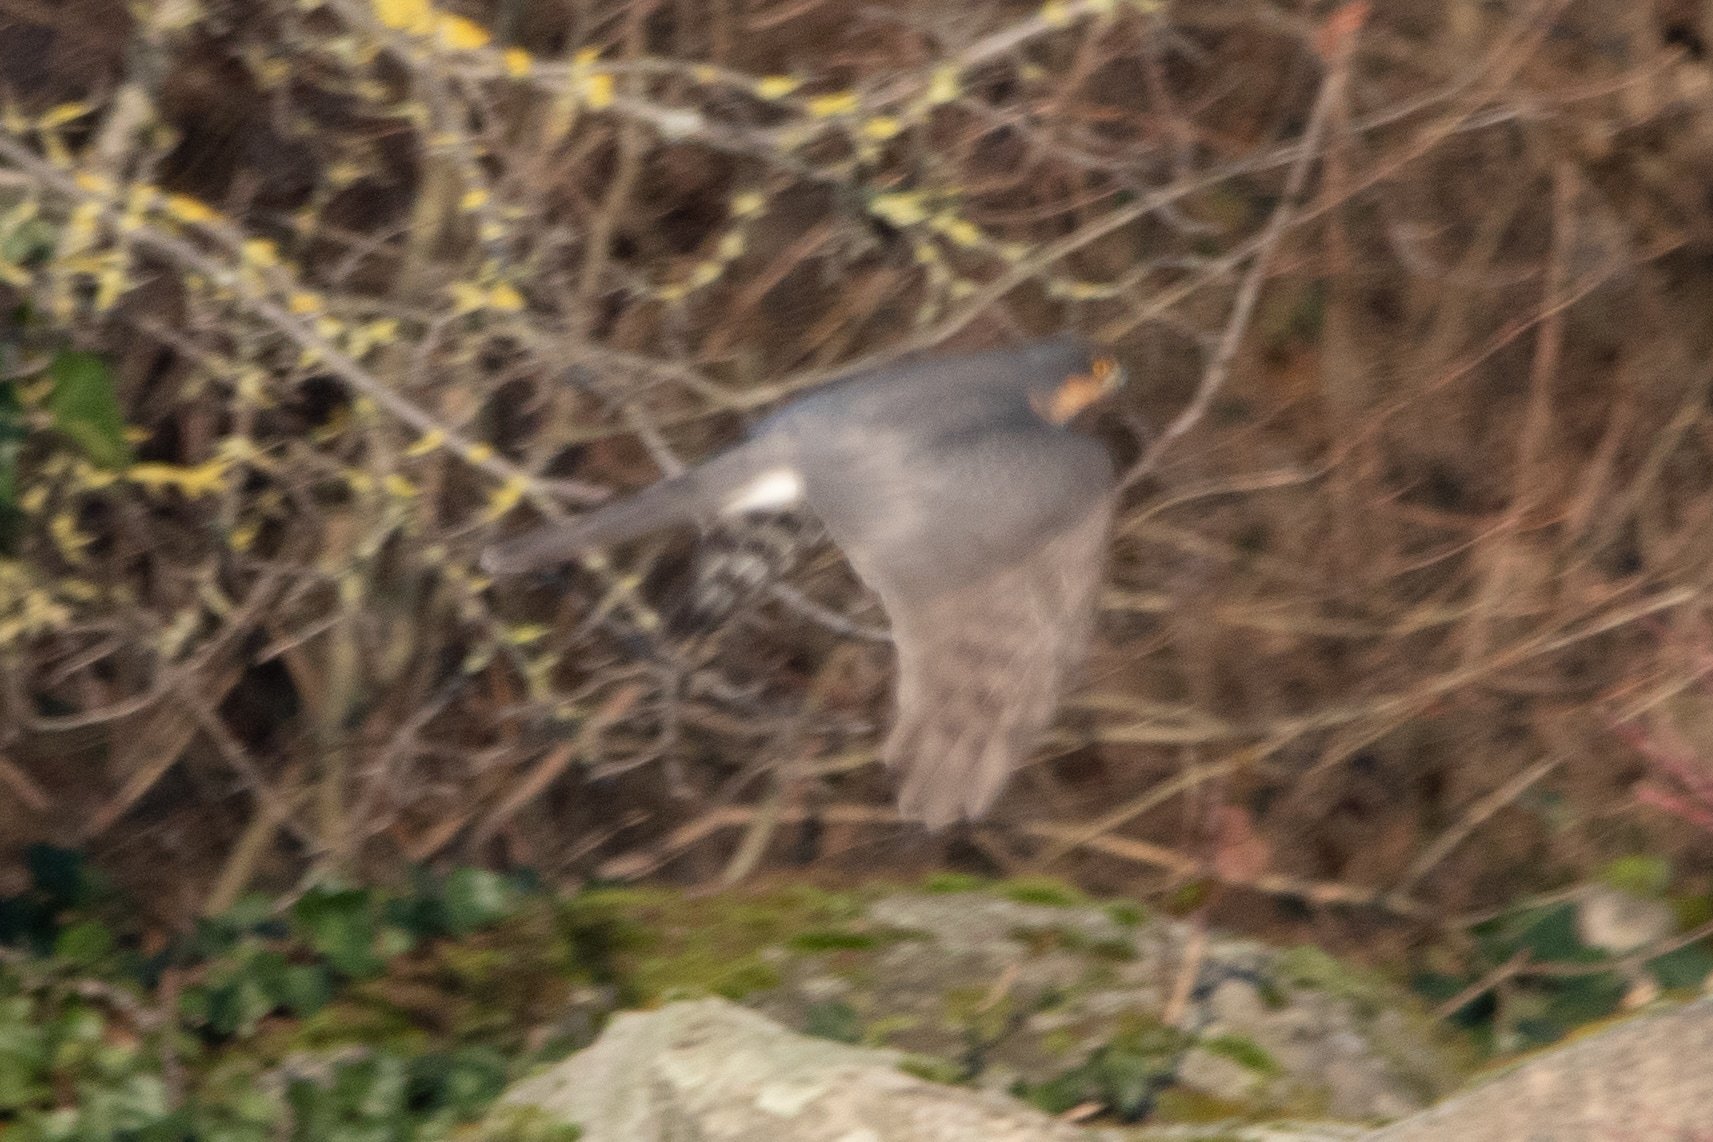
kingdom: Animalia
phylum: Chordata
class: Aves
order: Accipitriformes
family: Accipitridae
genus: Accipiter
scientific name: Accipiter nisus
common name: Eurasian sparrowhawk
